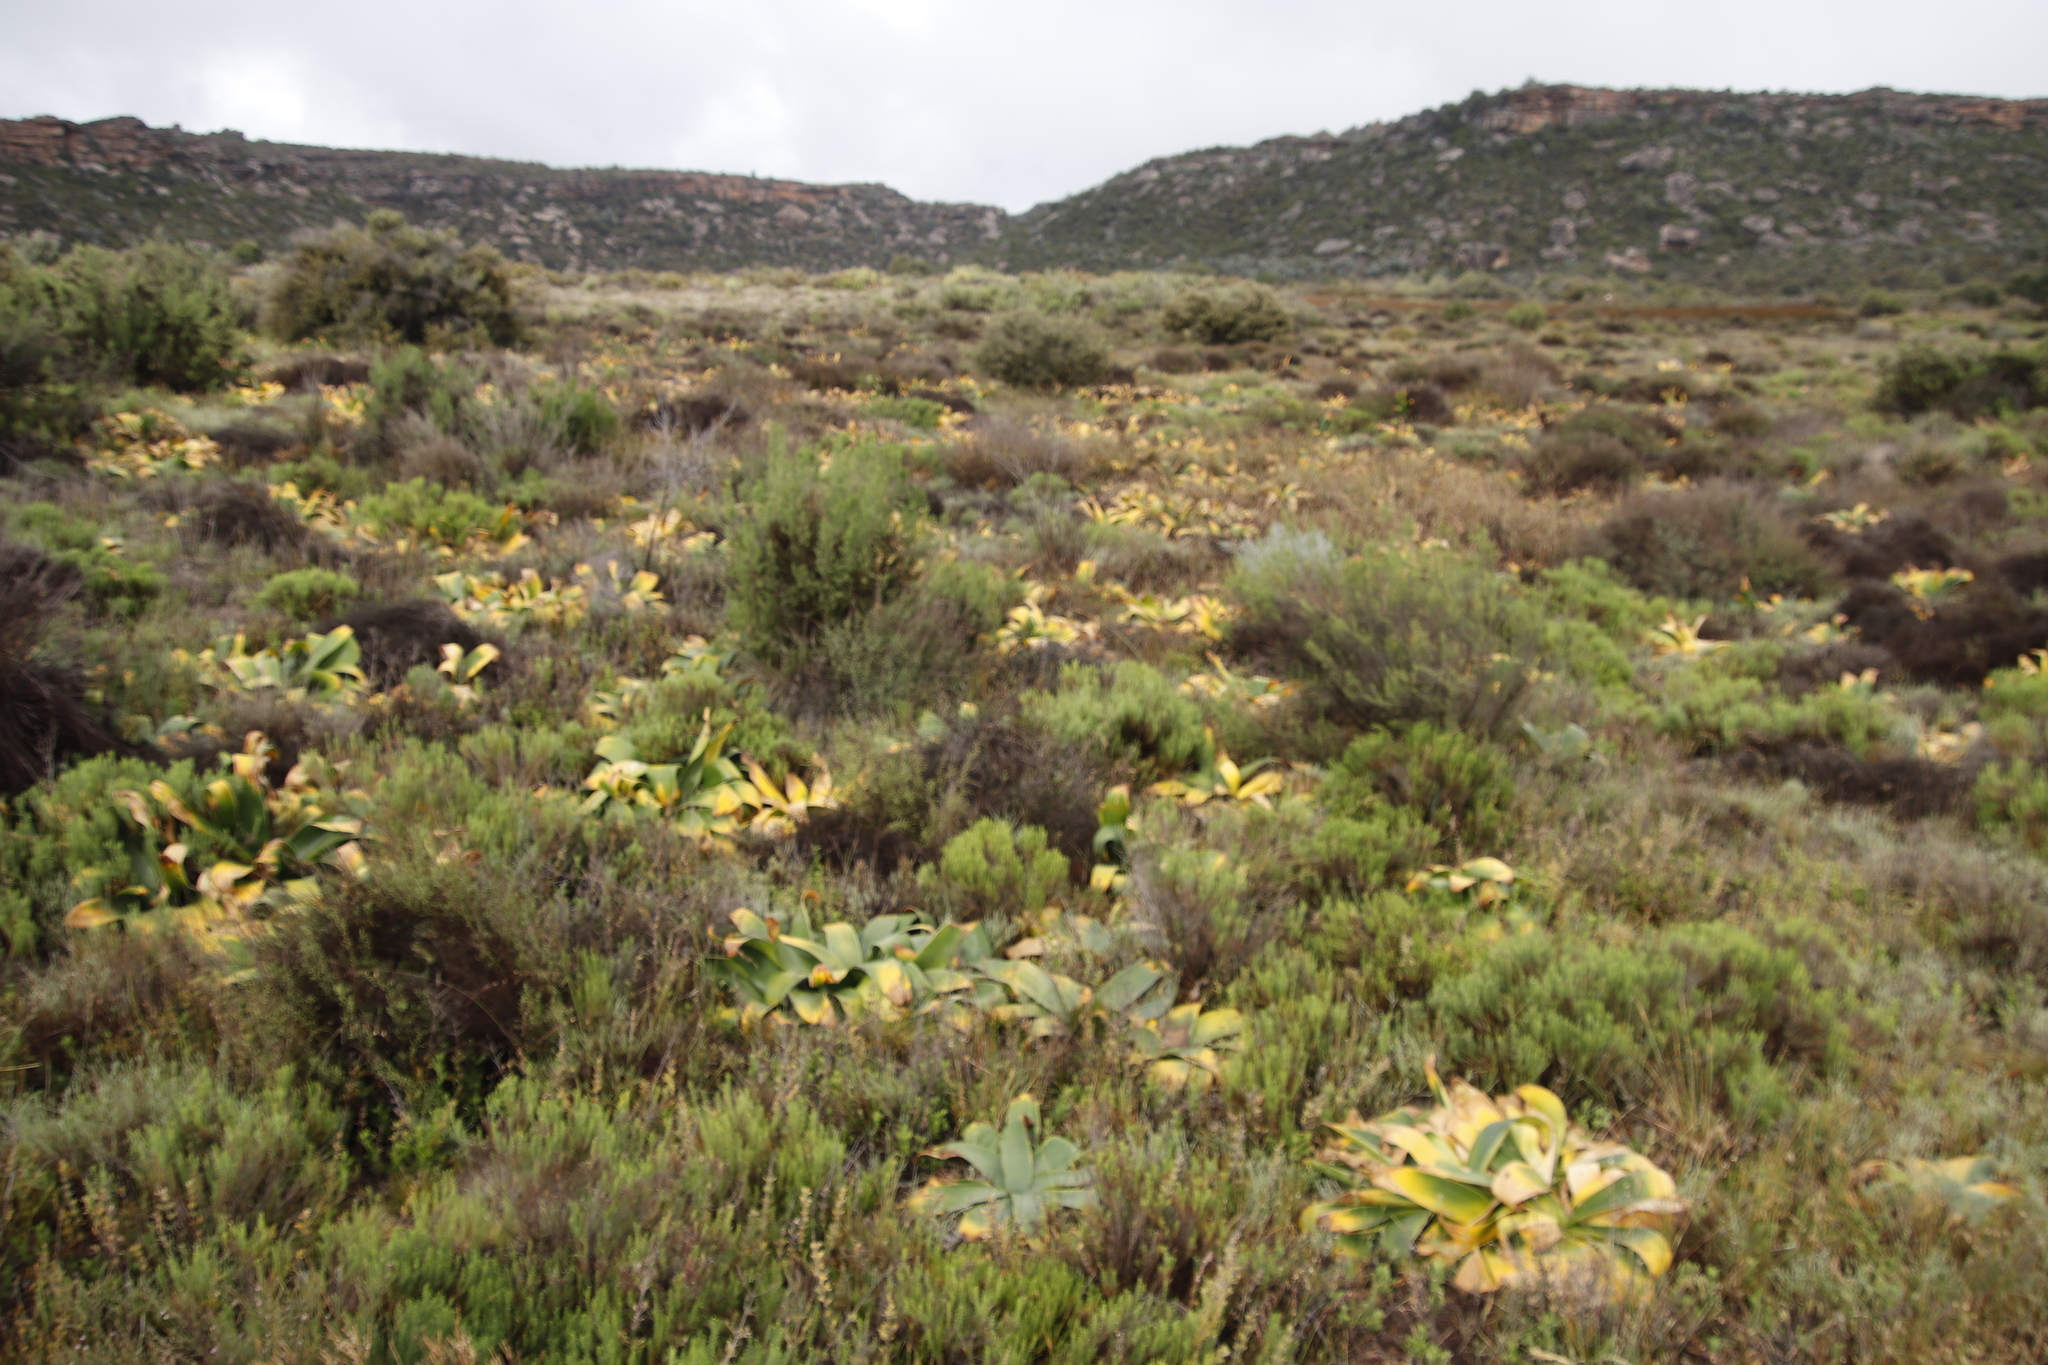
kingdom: Plantae
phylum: Tracheophyta
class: Liliopsida
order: Asparagales
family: Amaryllidaceae
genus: Crossyne
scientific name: Crossyne flava
